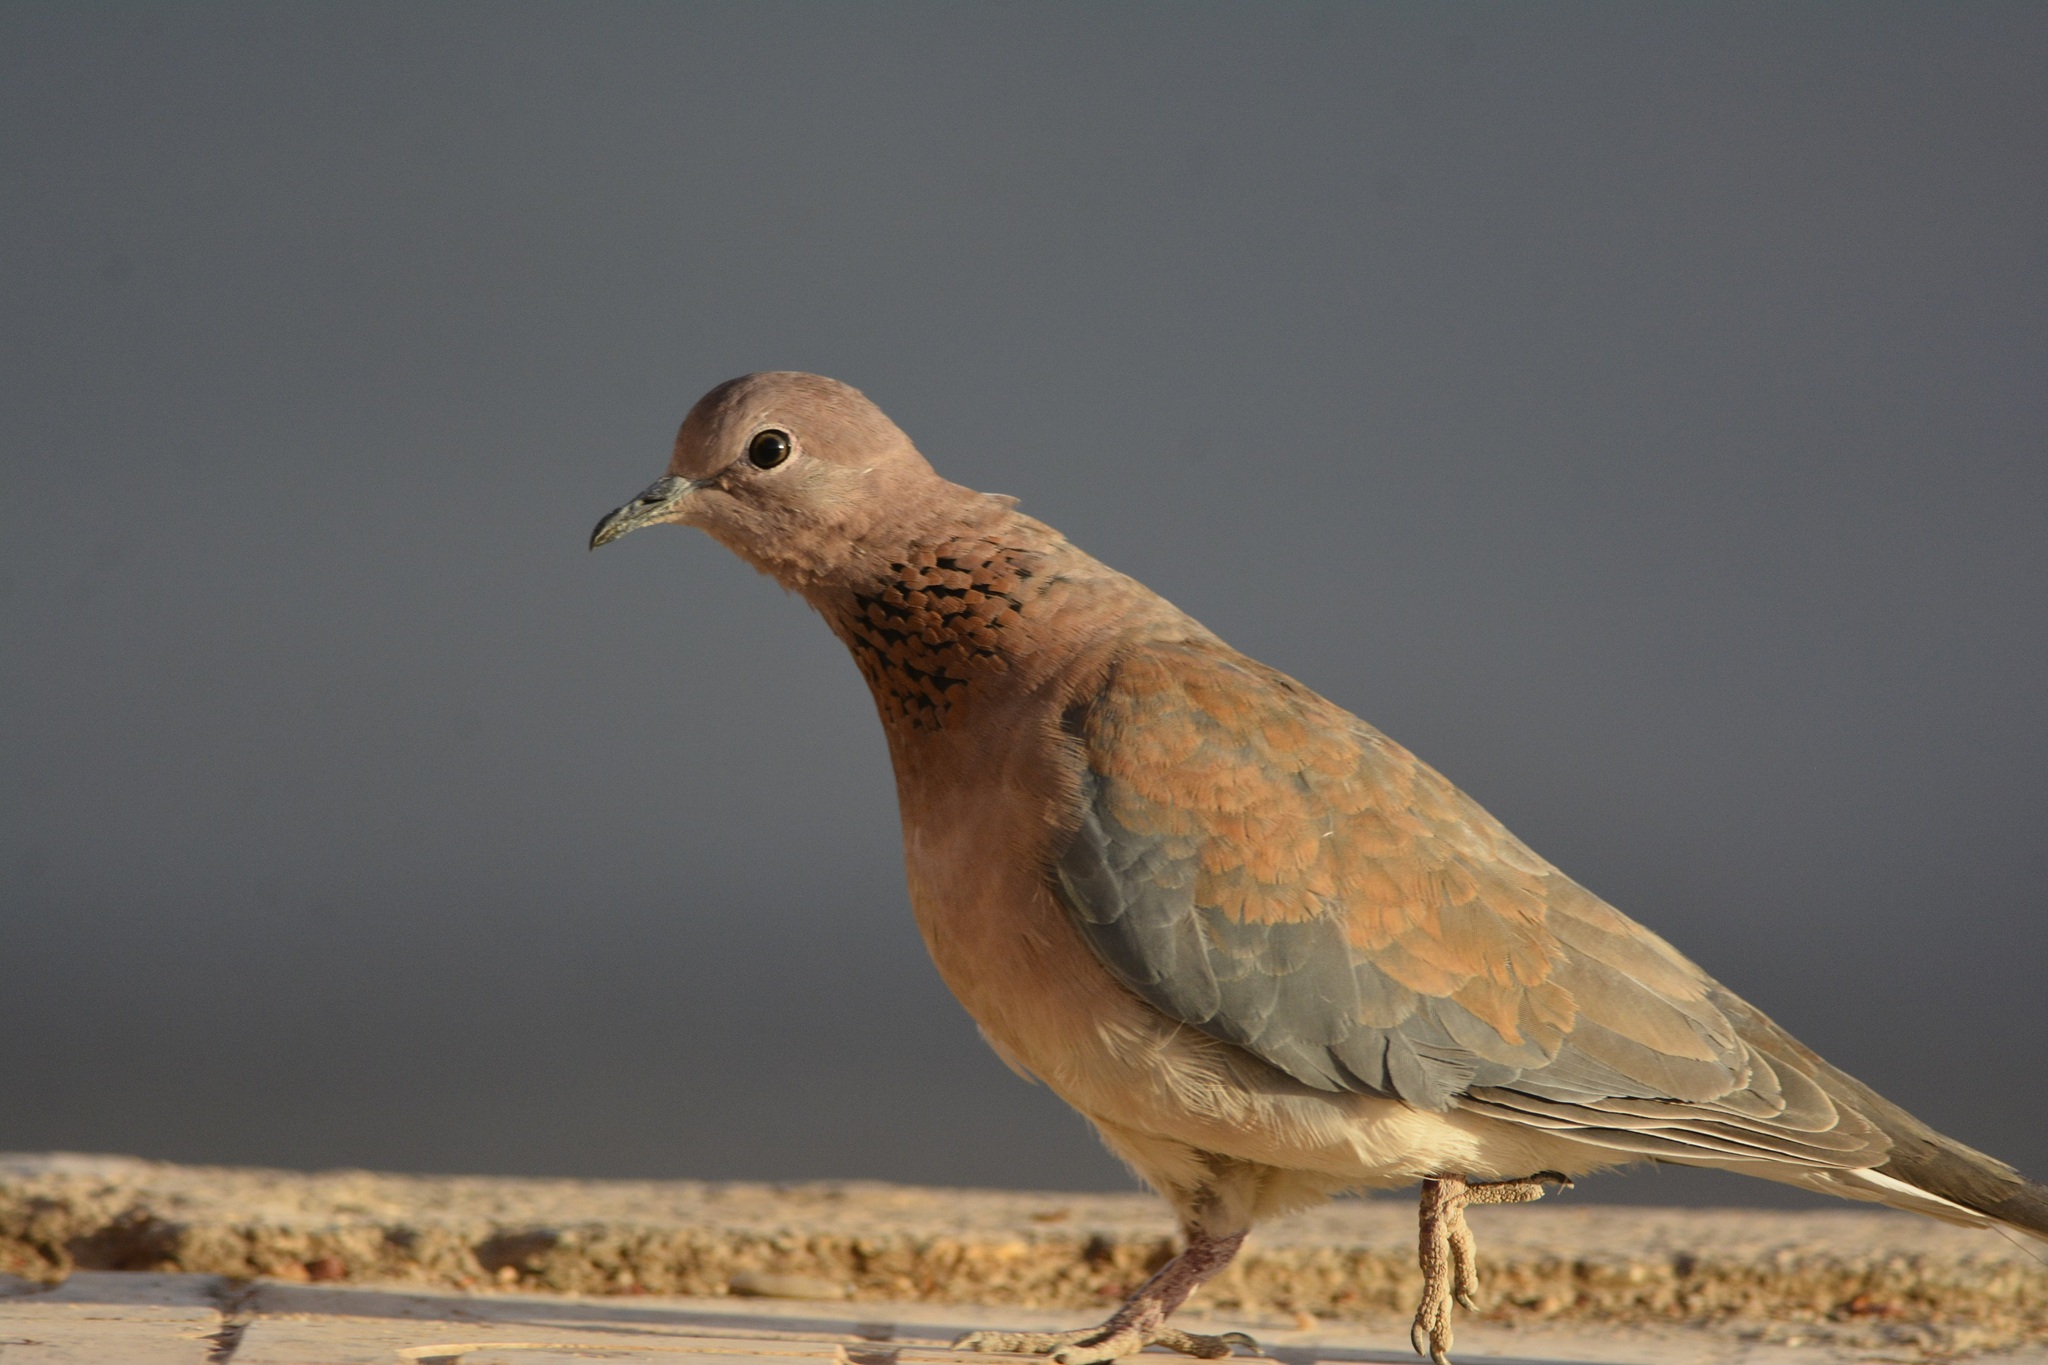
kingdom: Animalia
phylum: Chordata
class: Aves
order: Columbiformes
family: Columbidae
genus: Spilopelia
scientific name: Spilopelia senegalensis
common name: Laughing dove
